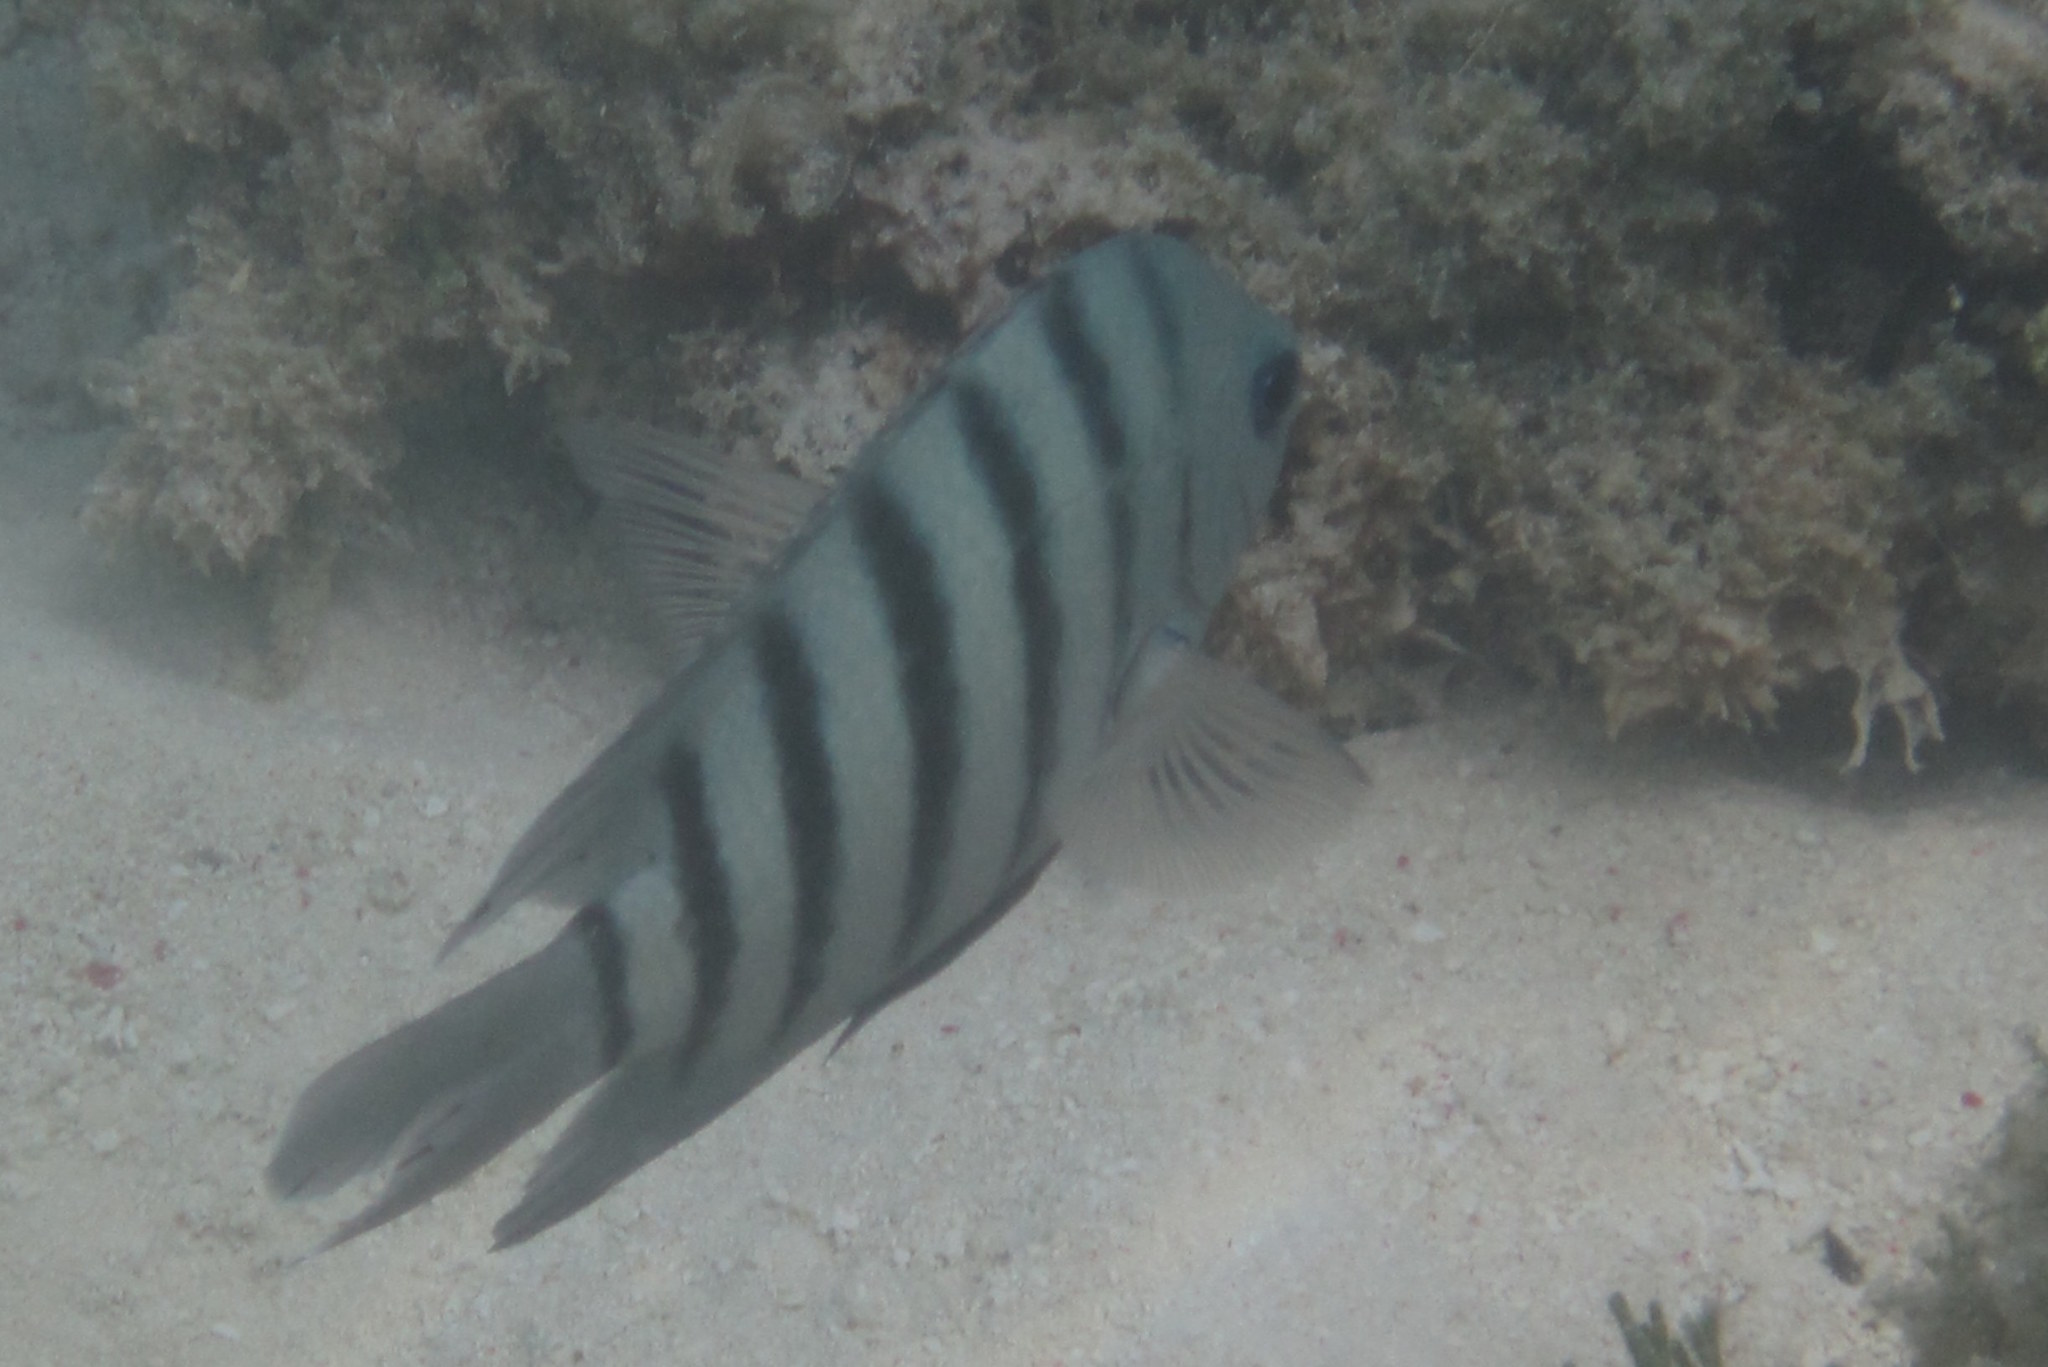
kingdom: Animalia
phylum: Chordata
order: Perciformes
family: Pomacentridae
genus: Abudefduf
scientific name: Abudefduf bengalensis
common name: Bengal sergeant
